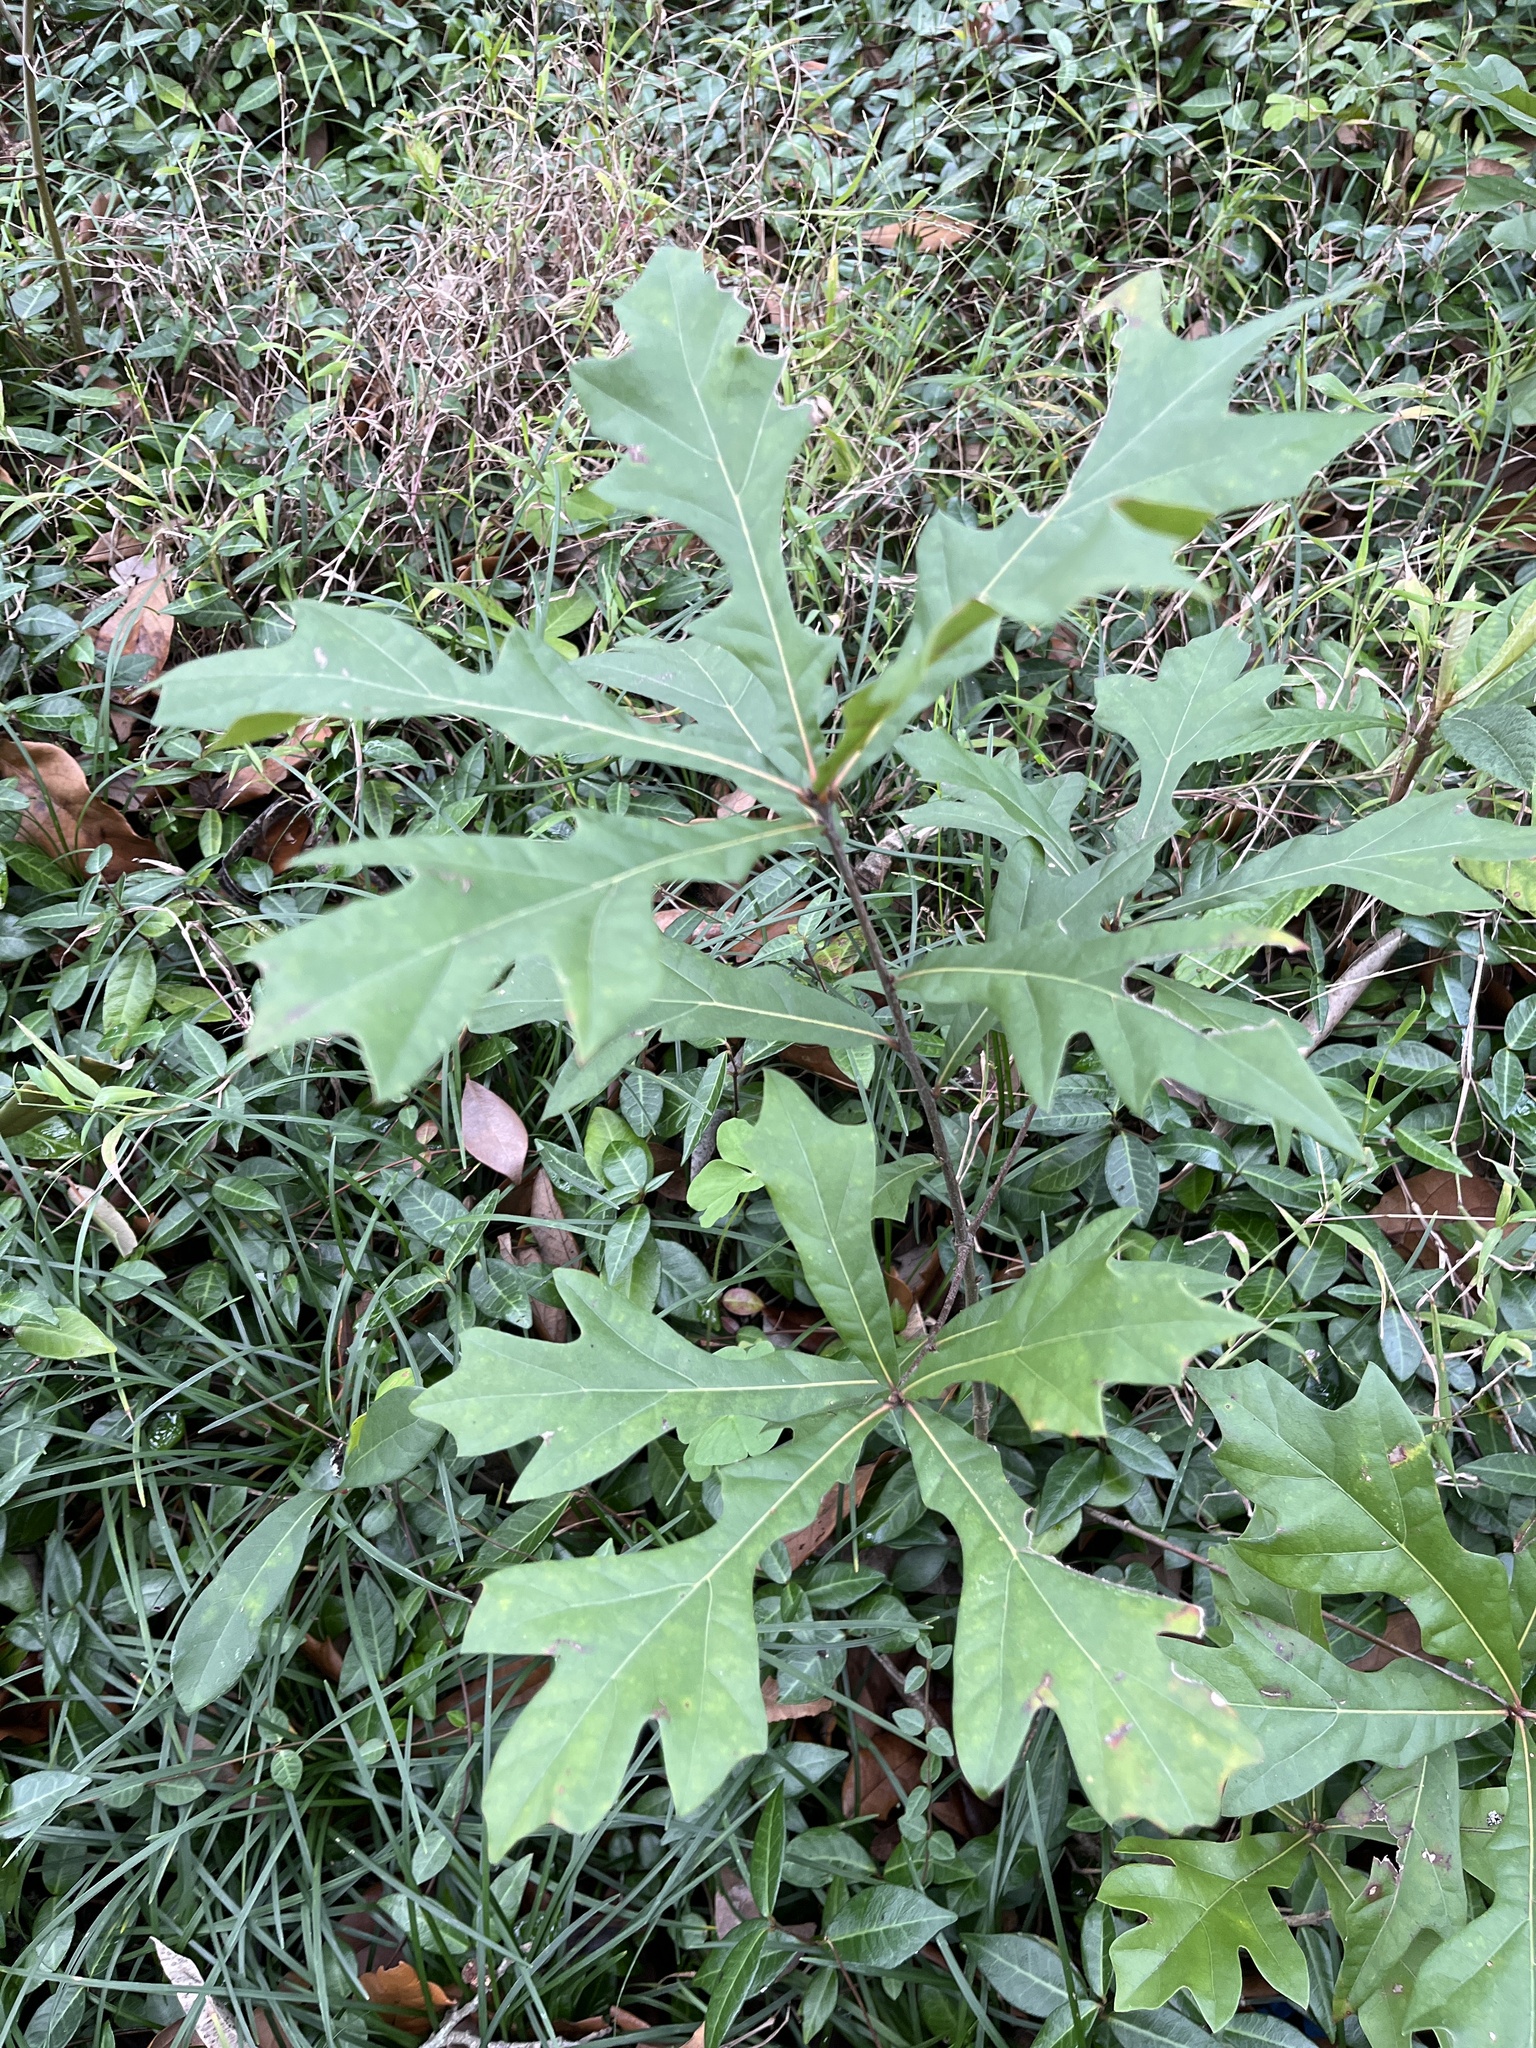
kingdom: Plantae
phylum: Tracheophyta
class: Magnoliopsida
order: Fagales
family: Fagaceae
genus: Quercus
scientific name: Quercus
